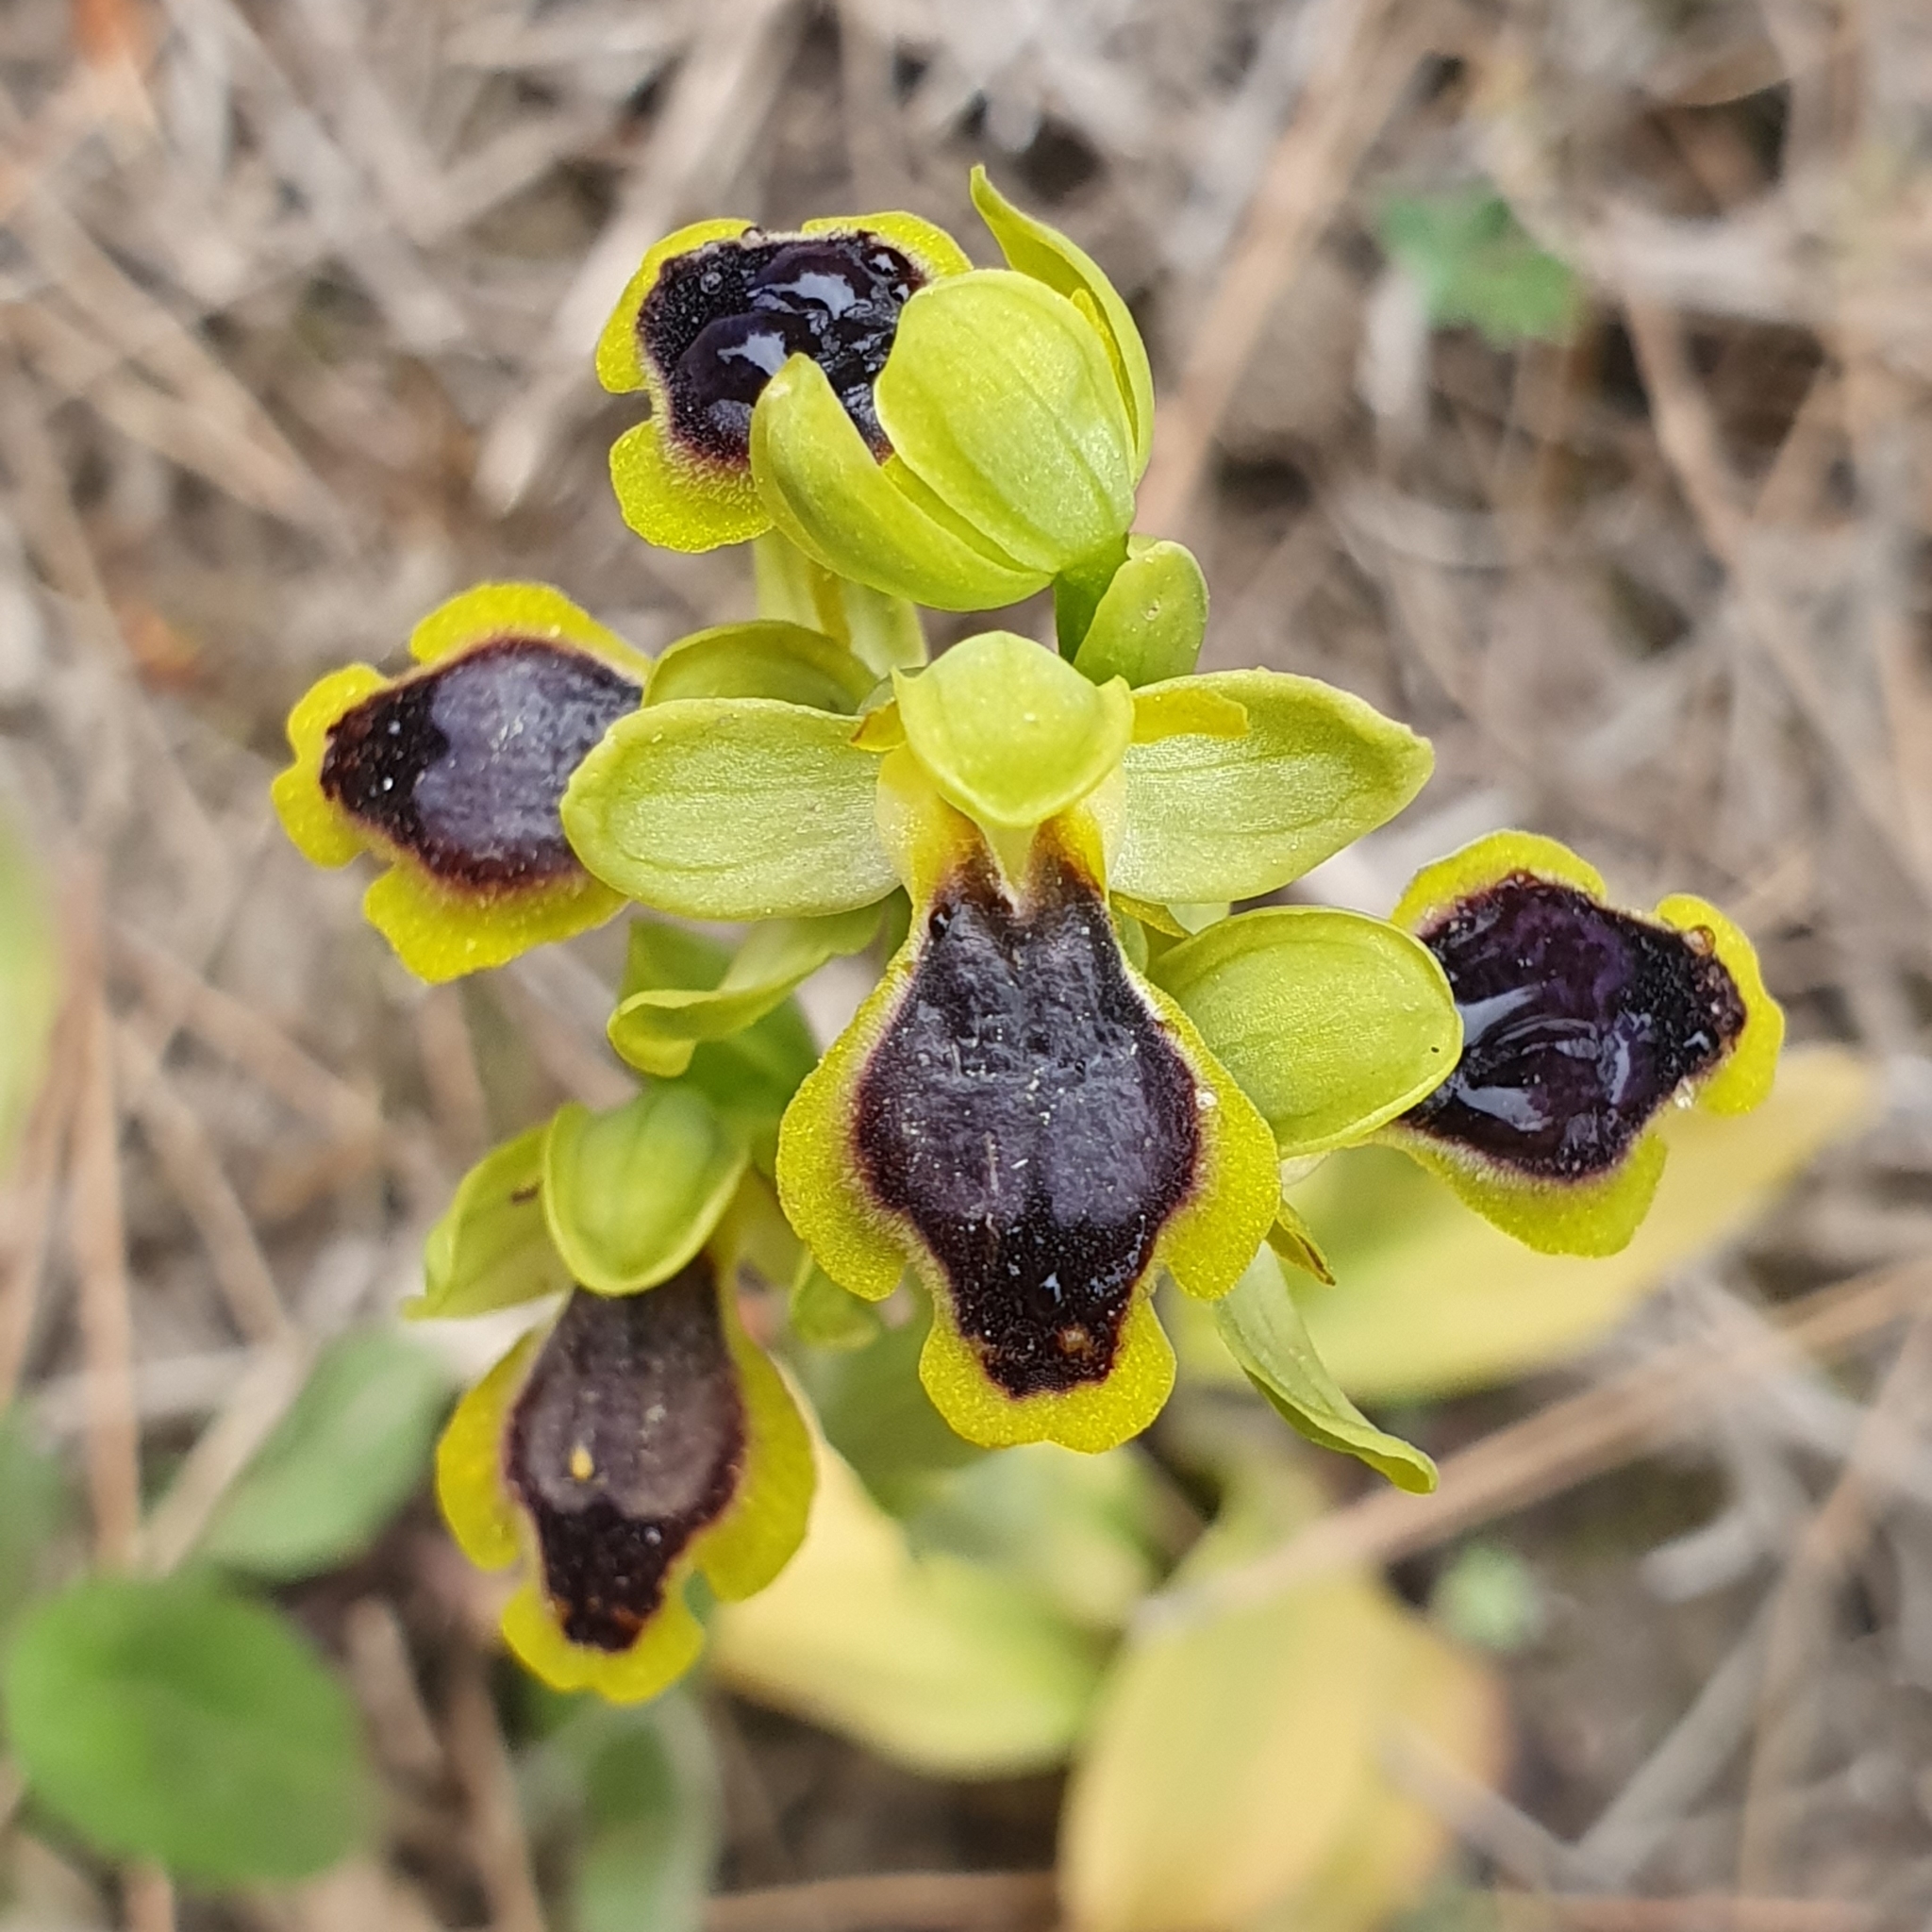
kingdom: Plantae
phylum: Tracheophyta
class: Liliopsida
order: Asparagales
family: Orchidaceae
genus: Ophrys
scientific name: Ophrys battandieri
